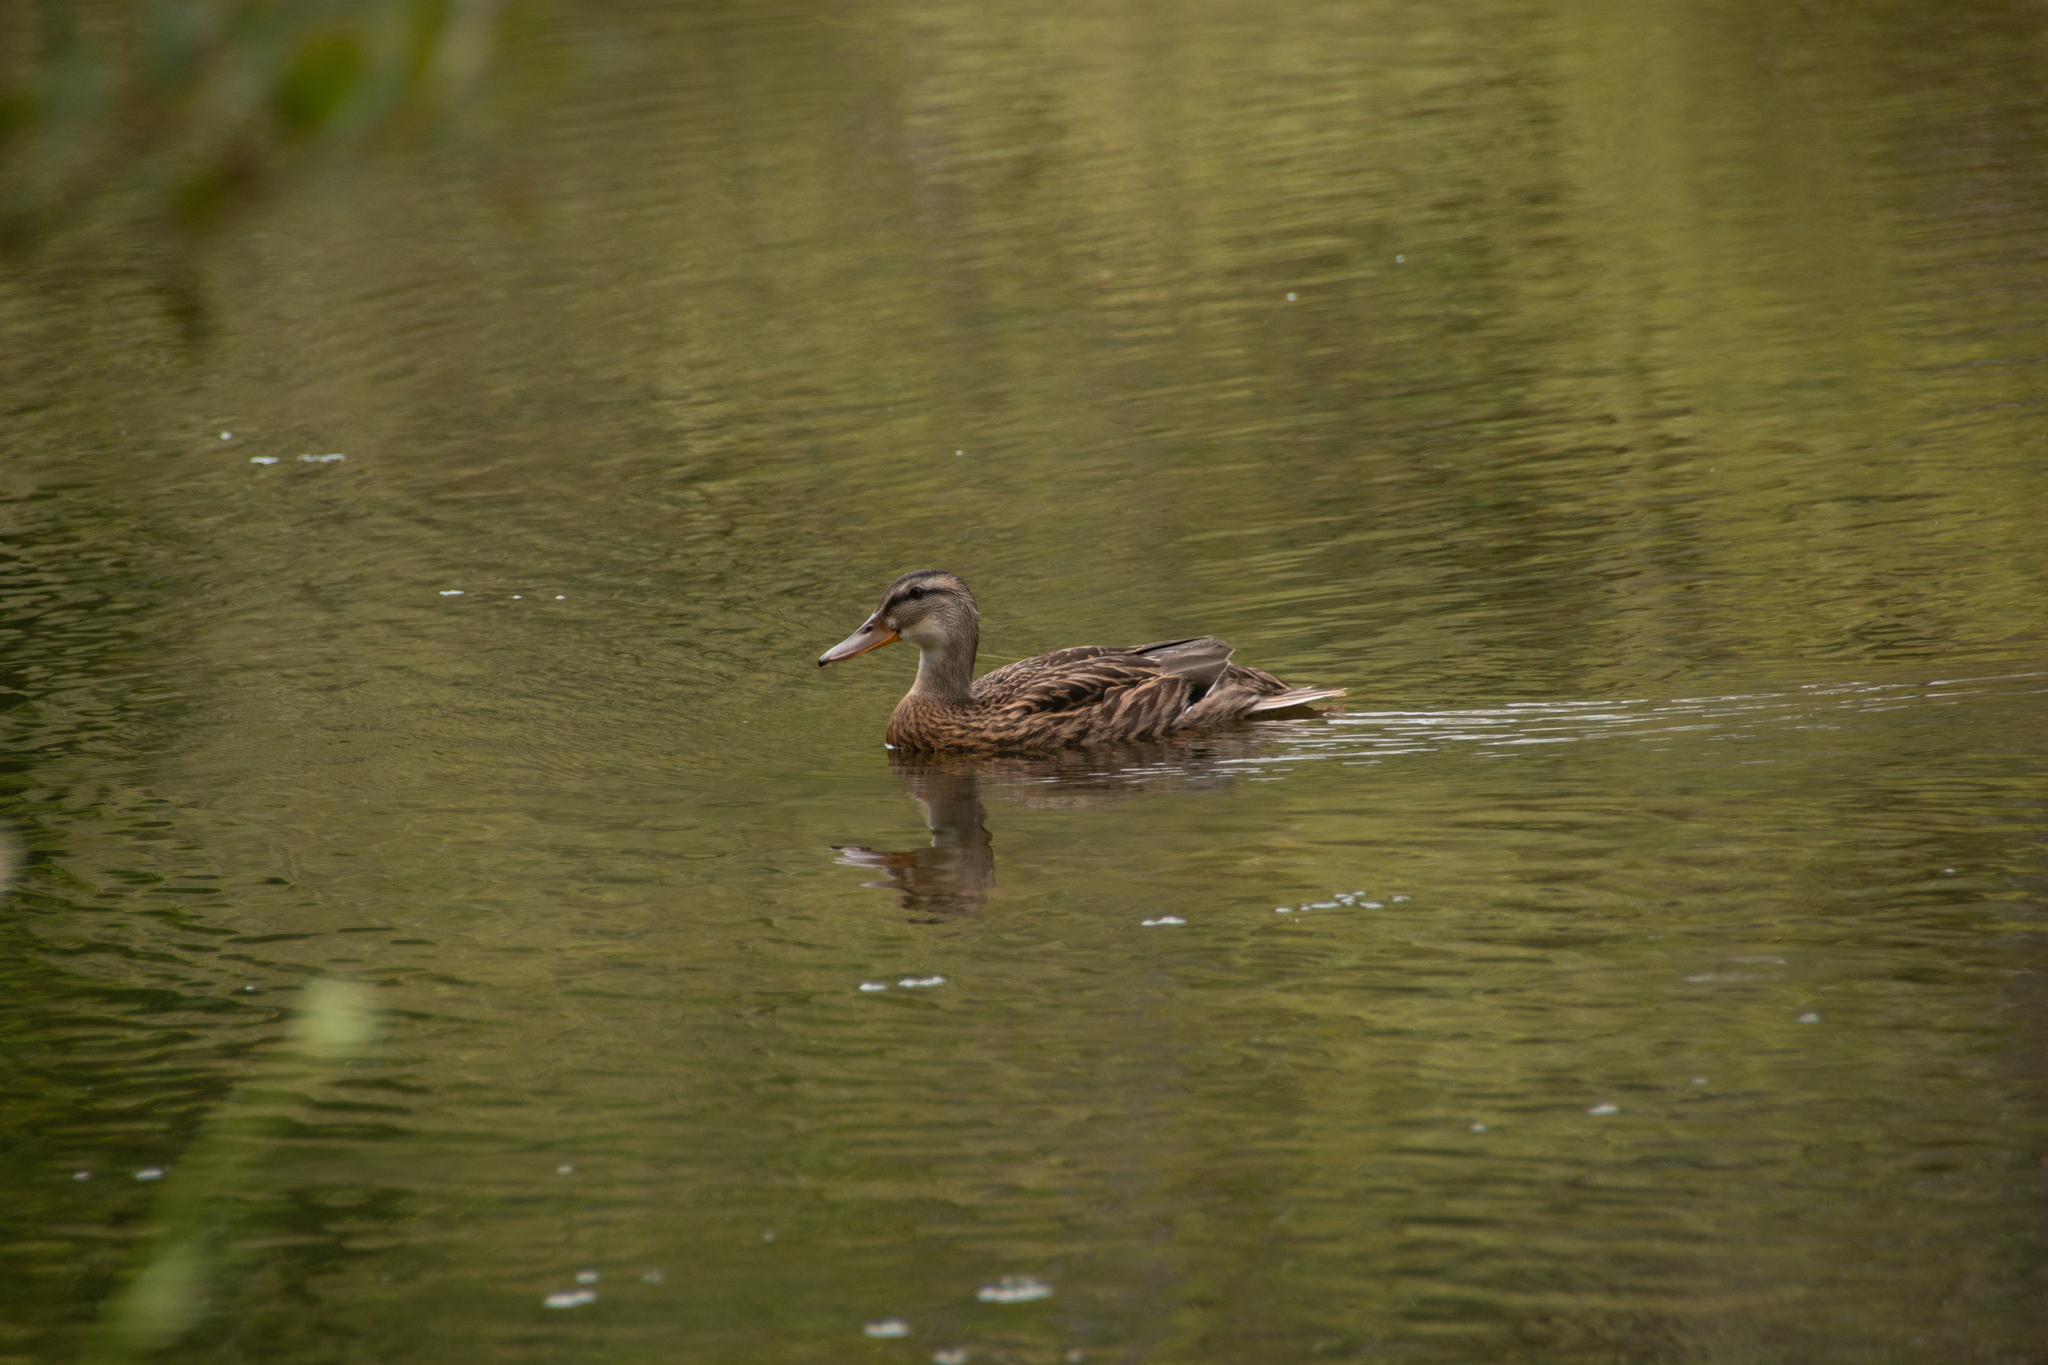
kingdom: Animalia
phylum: Chordata
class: Aves
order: Anseriformes
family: Anatidae
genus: Anas
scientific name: Anas platyrhynchos
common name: Mallard
